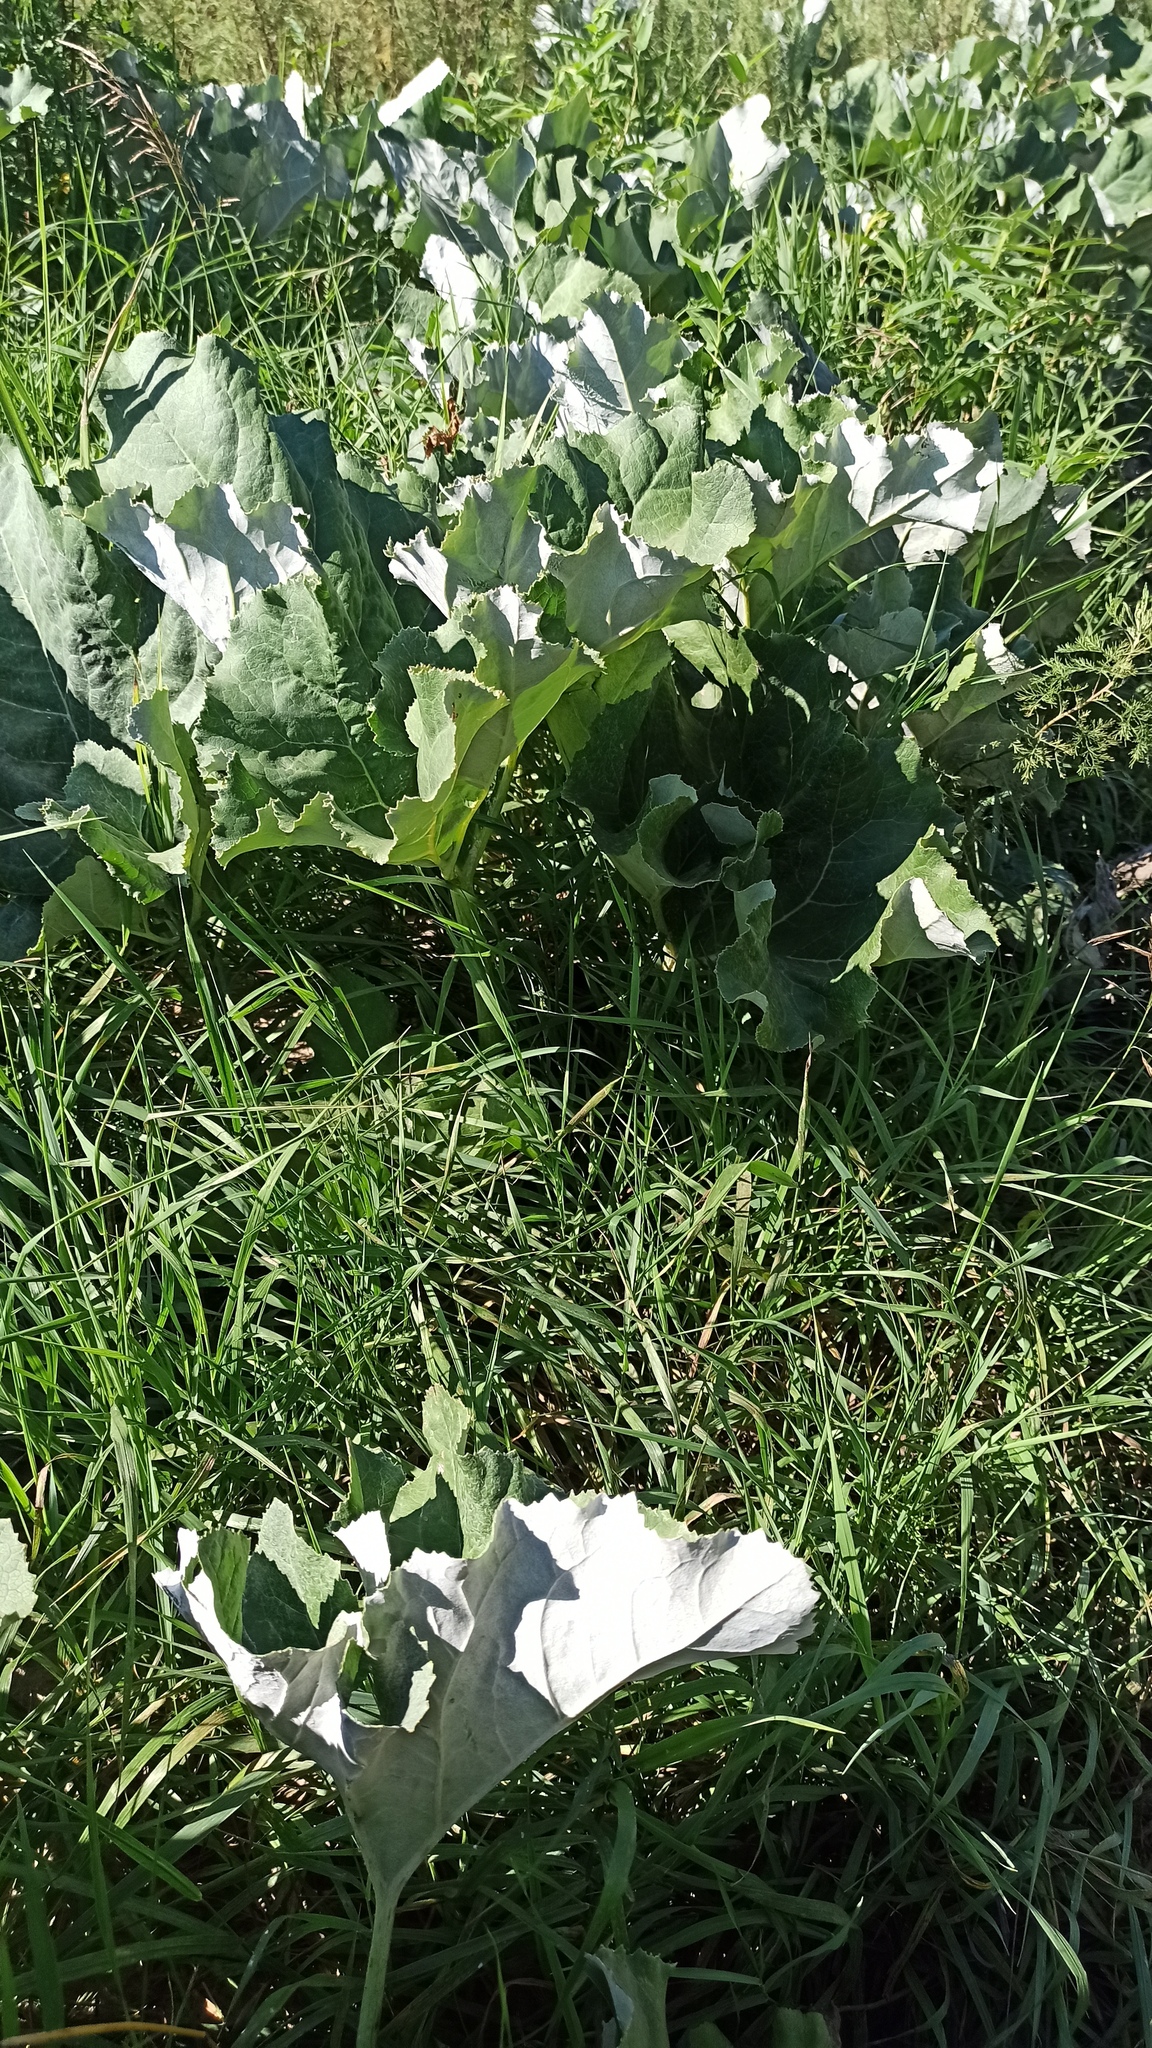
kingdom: Plantae
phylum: Tracheophyta
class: Magnoliopsida
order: Asterales
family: Asteraceae
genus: Petasites
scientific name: Petasites spurius
